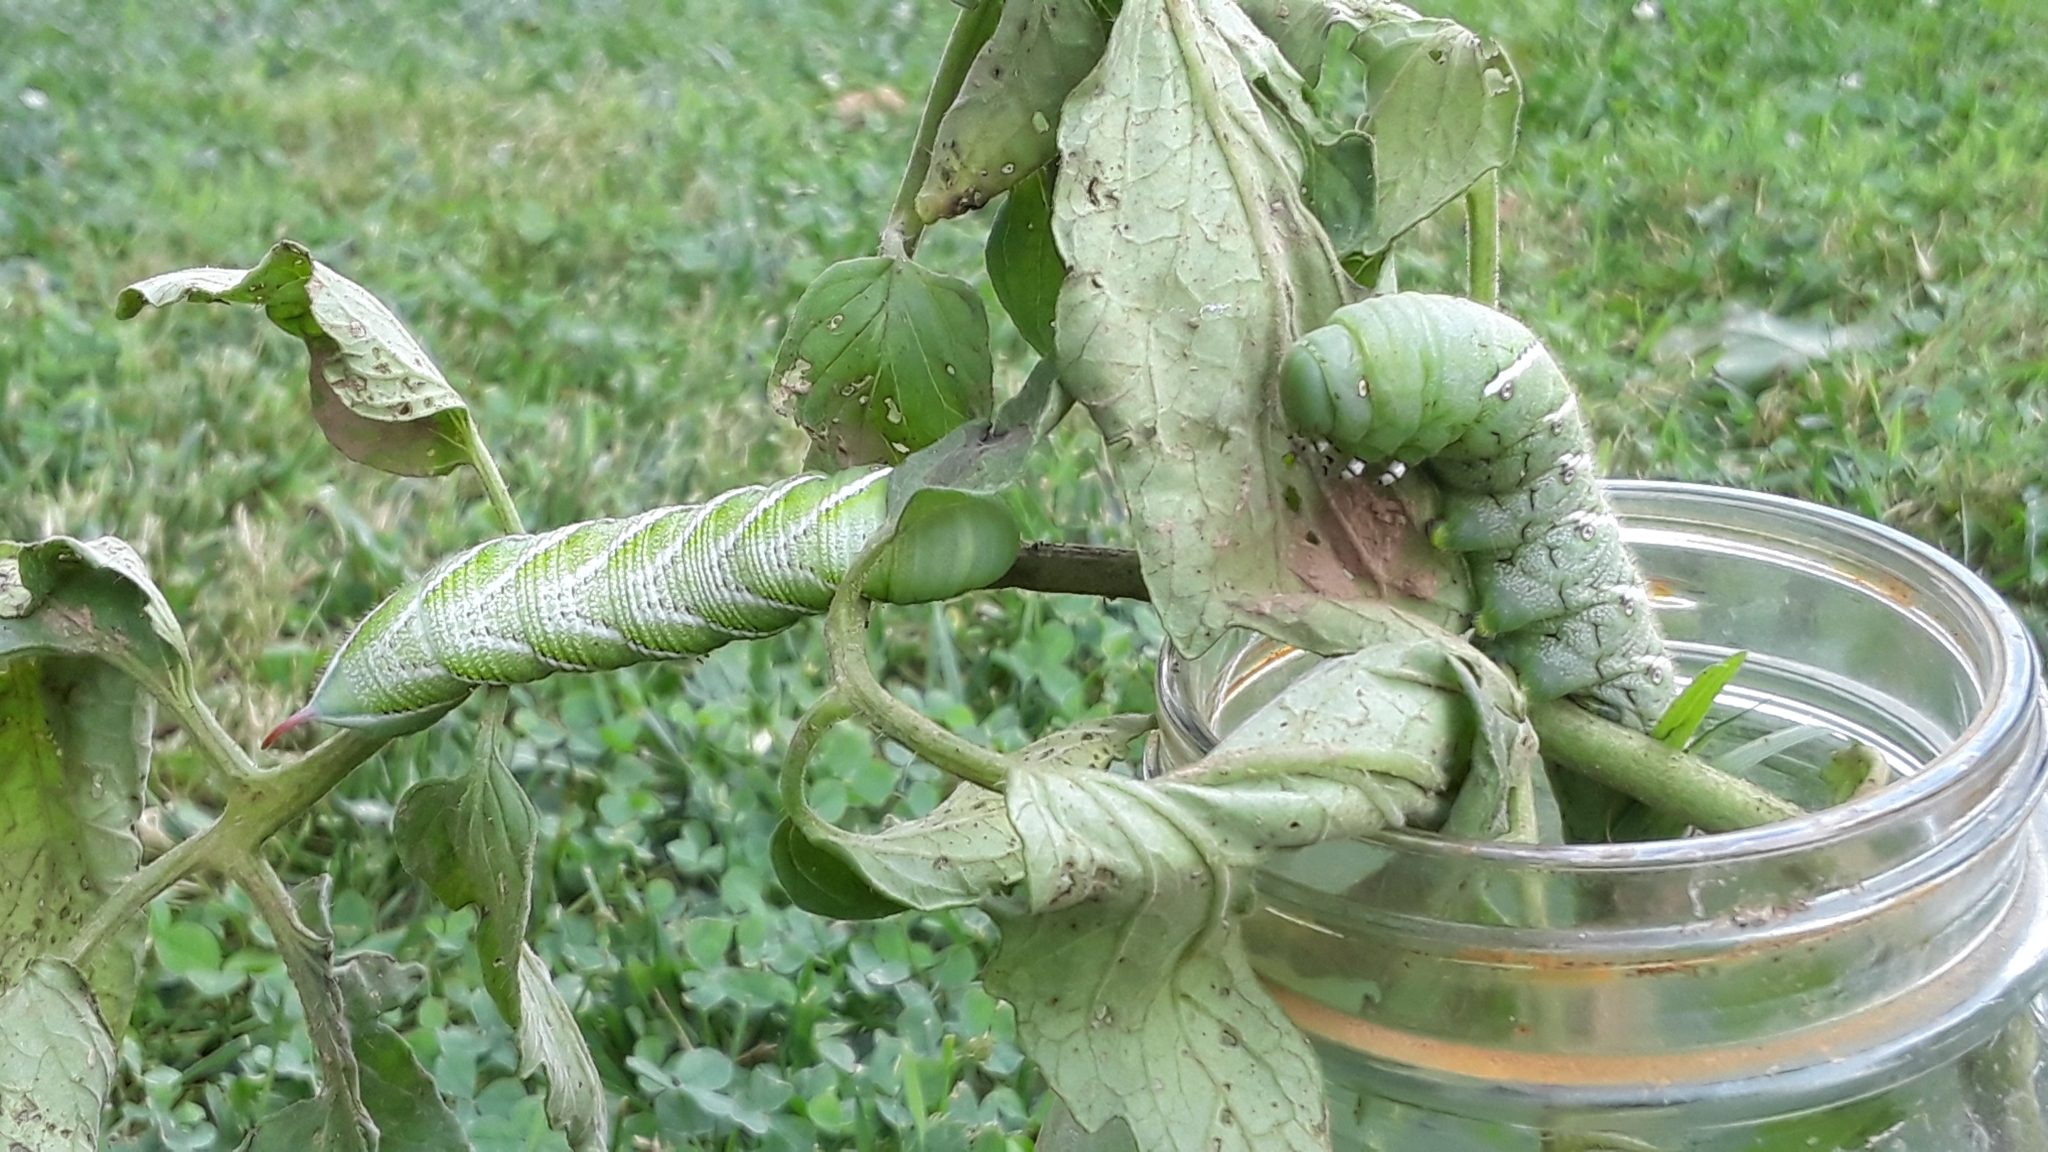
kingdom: Animalia
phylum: Arthropoda
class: Insecta
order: Lepidoptera
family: Sphingidae
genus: Manduca
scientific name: Manduca sexta
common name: Carolina sphinx
